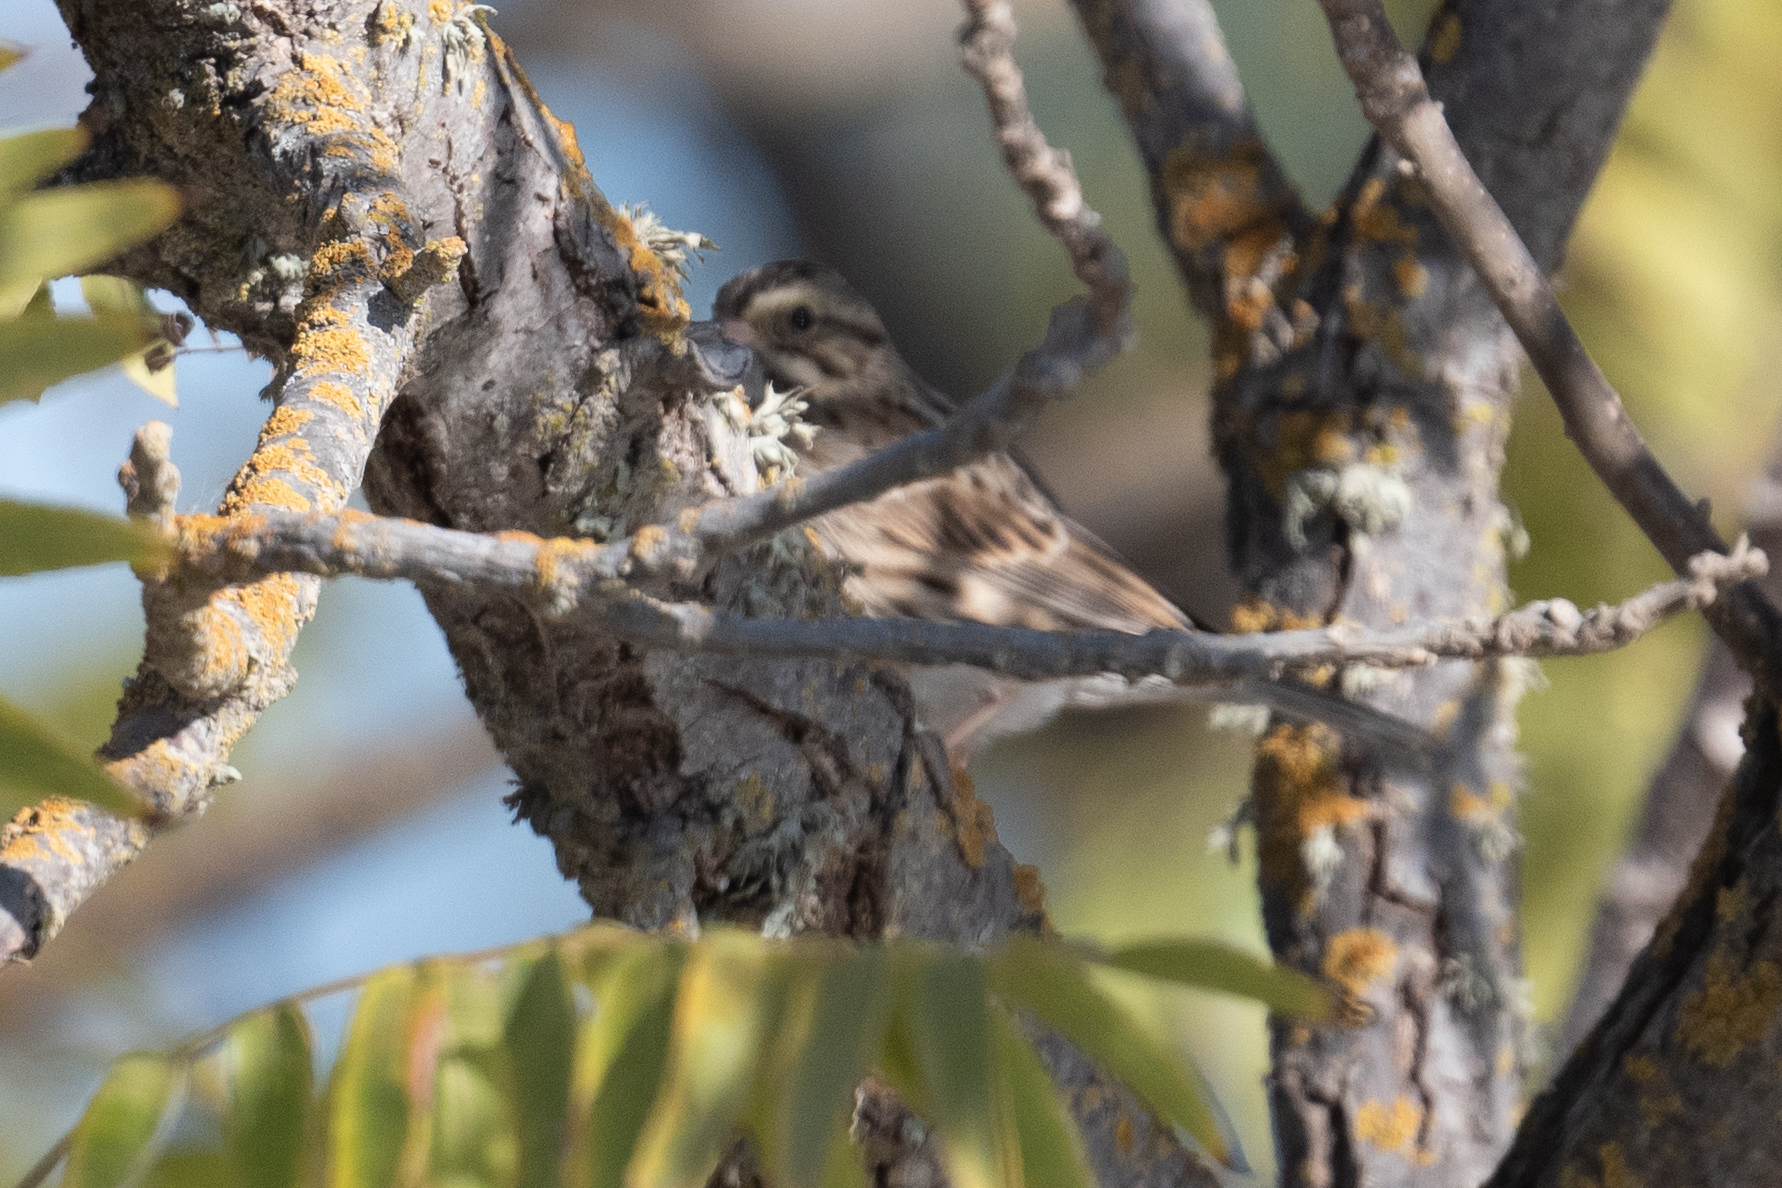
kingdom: Animalia
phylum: Chordata
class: Aves
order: Passeriformes
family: Passerellidae
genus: Passerculus
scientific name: Passerculus sandwichensis
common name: Savannah sparrow
